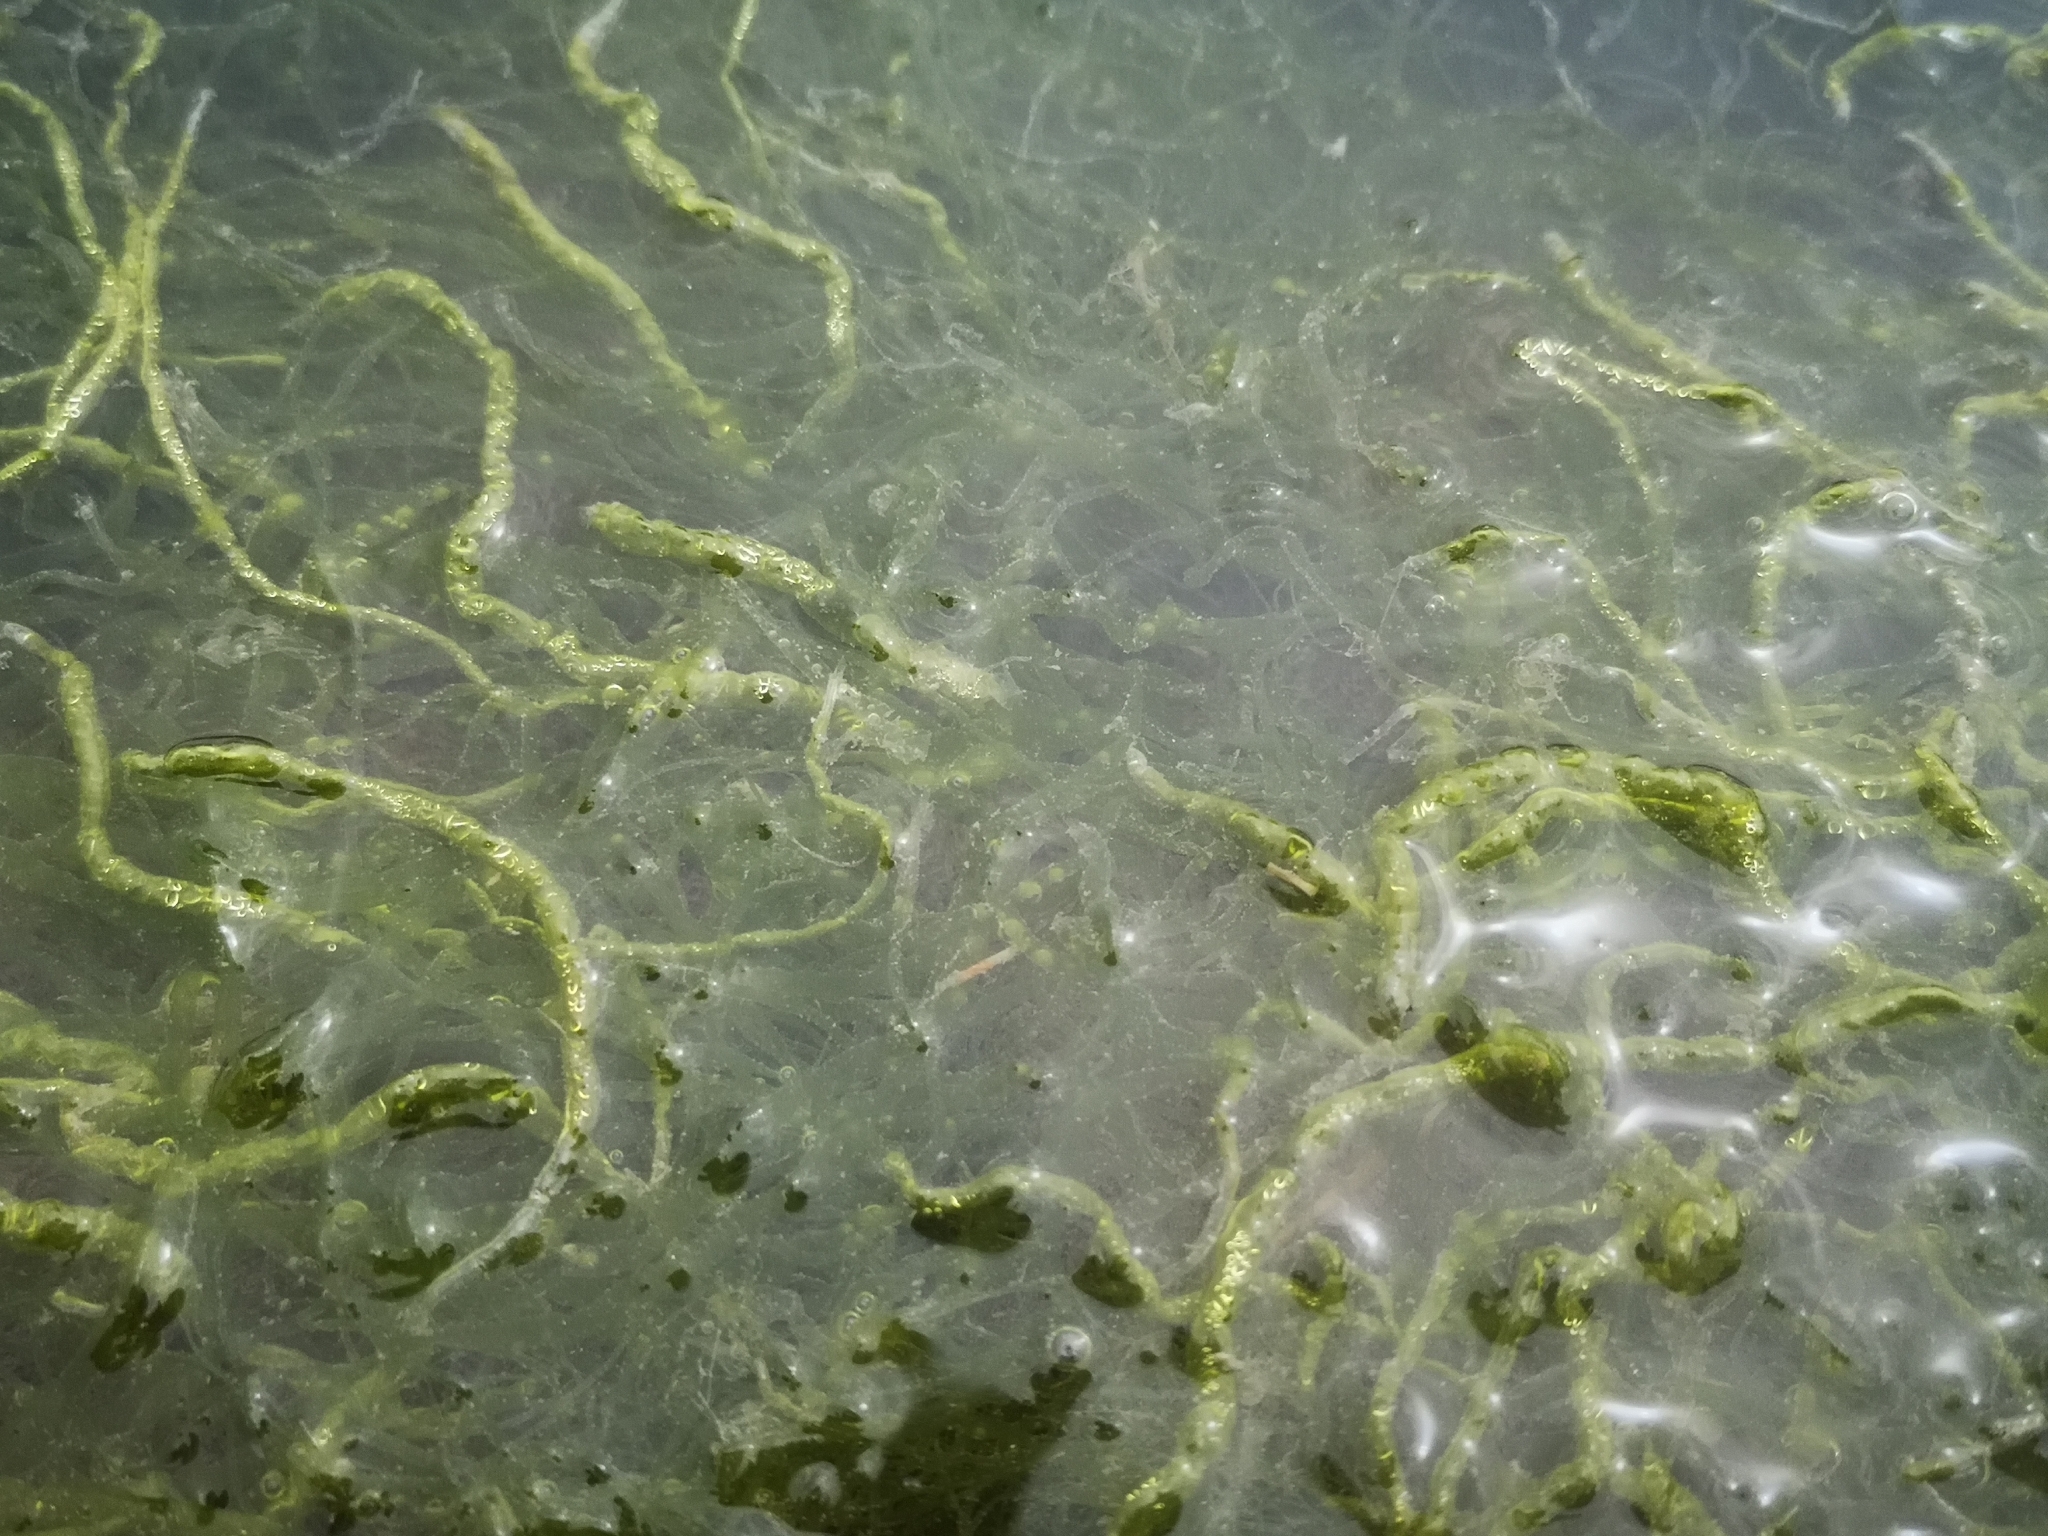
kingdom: Plantae
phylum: Chlorophyta
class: Ulvophyceae
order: Ulvales
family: Ulvaceae
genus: Ulva
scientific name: Ulva intestinalis
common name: Gut weed
